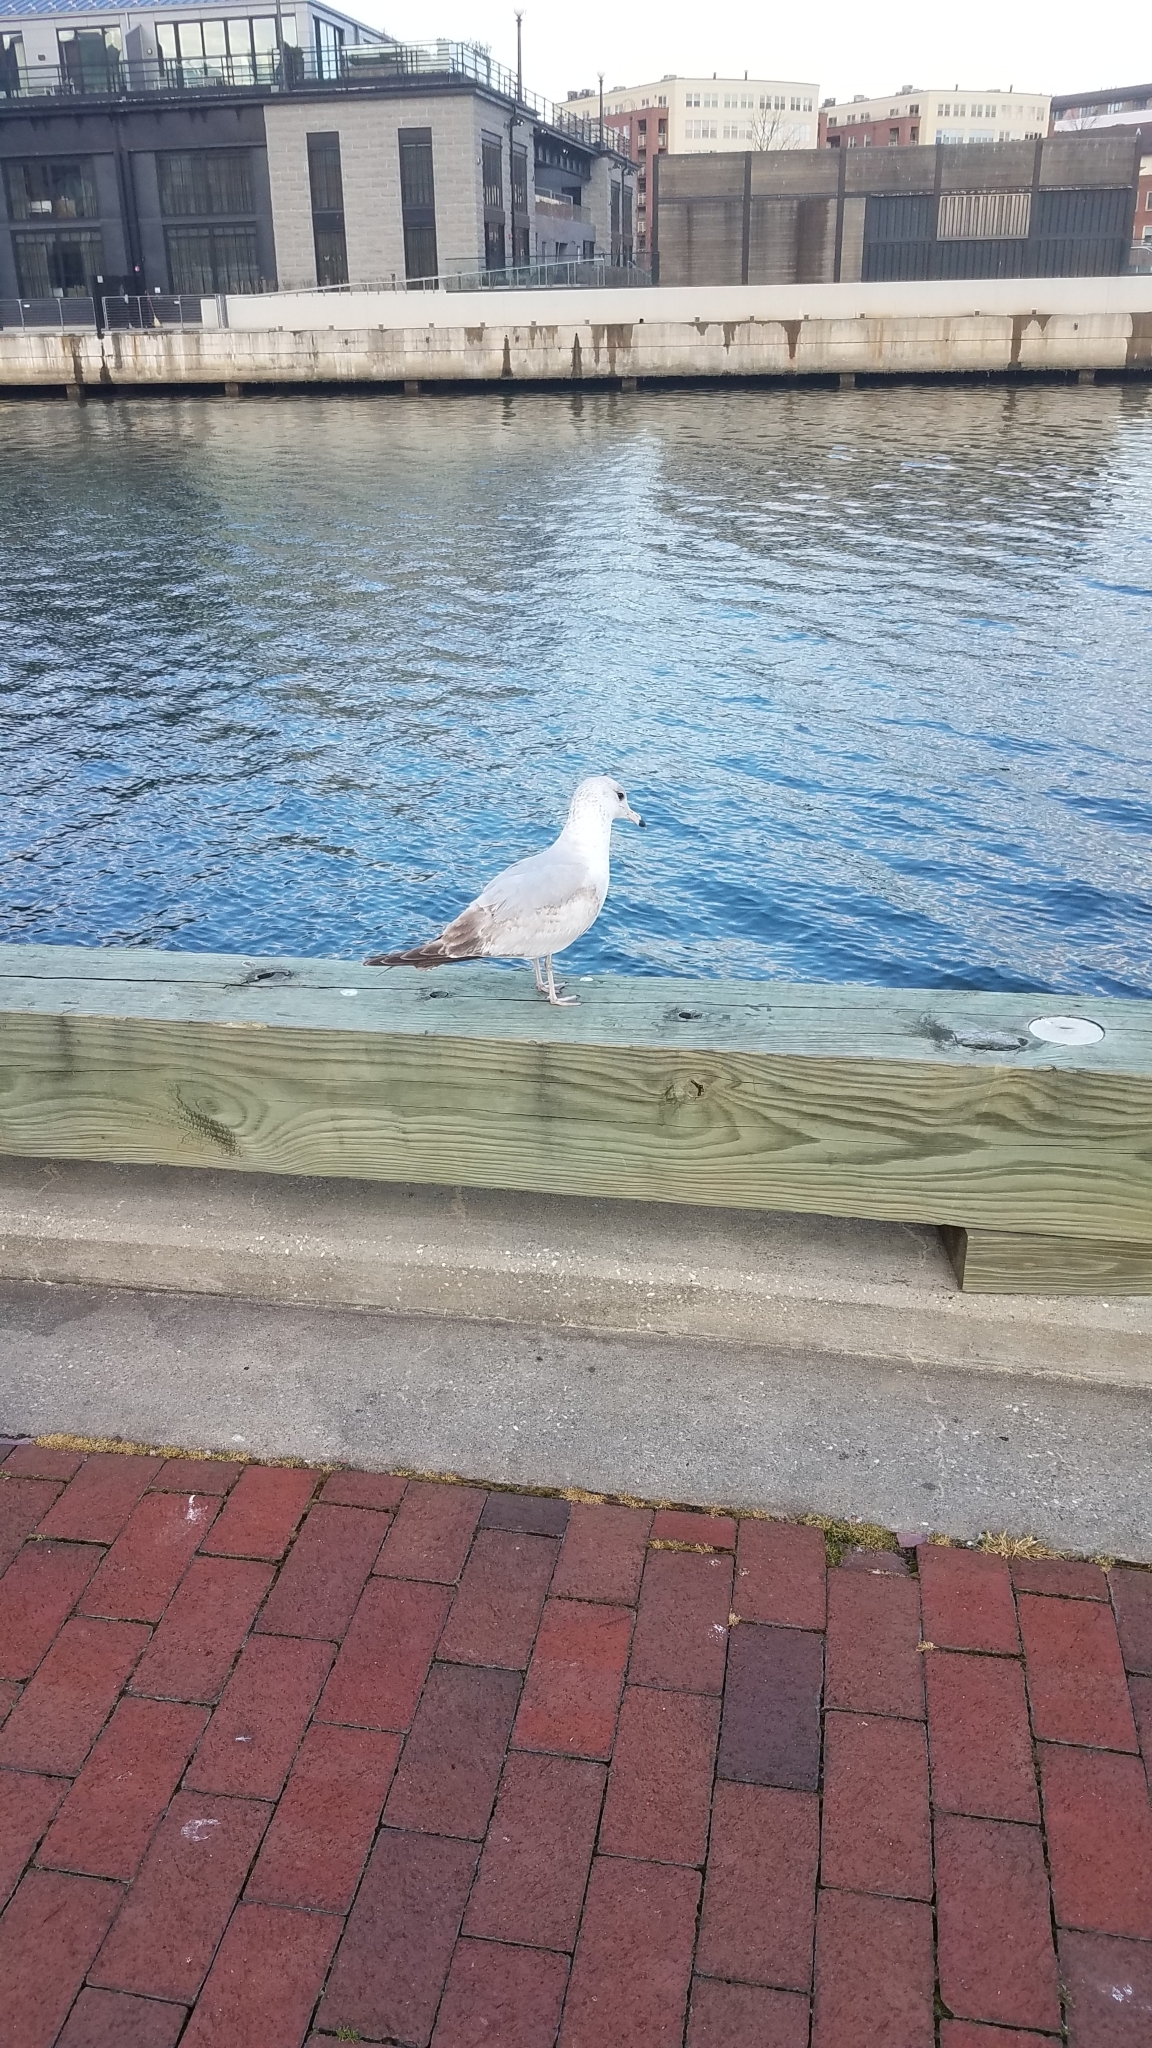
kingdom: Animalia
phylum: Chordata
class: Aves
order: Charadriiformes
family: Laridae
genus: Larus
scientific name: Larus delawarensis
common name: Ring-billed gull
